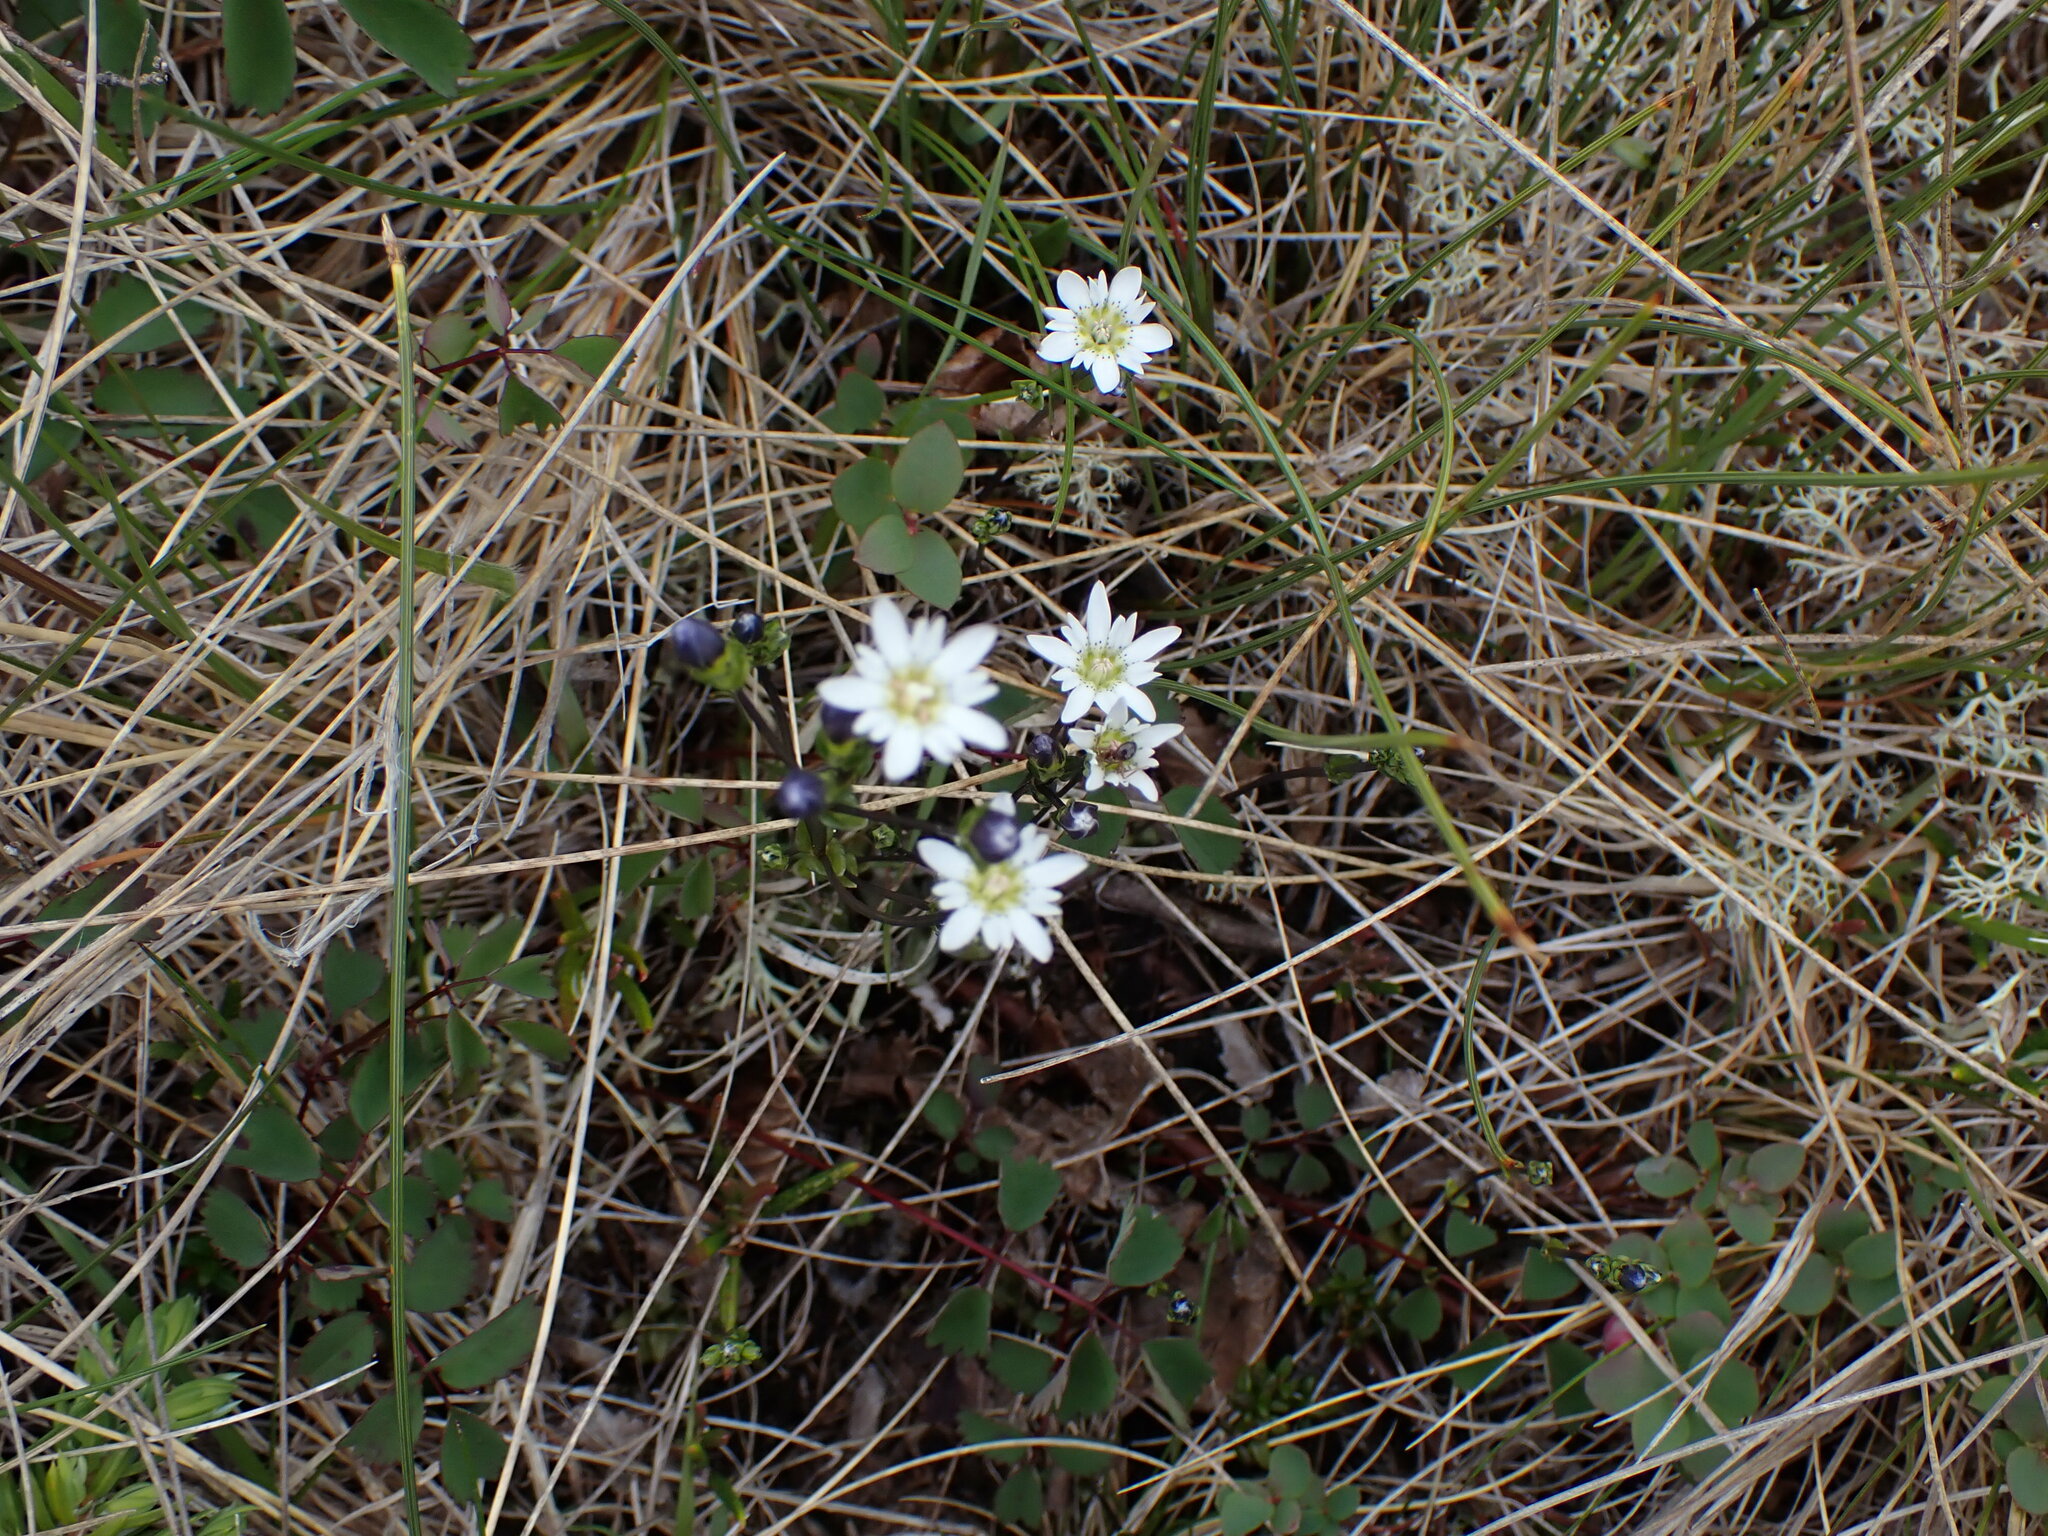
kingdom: Plantae
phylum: Tracheophyta
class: Magnoliopsida
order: Gentianales
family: Gentianaceae
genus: Gentiana
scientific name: Gentiana douglasiana
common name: Swamp gentian
